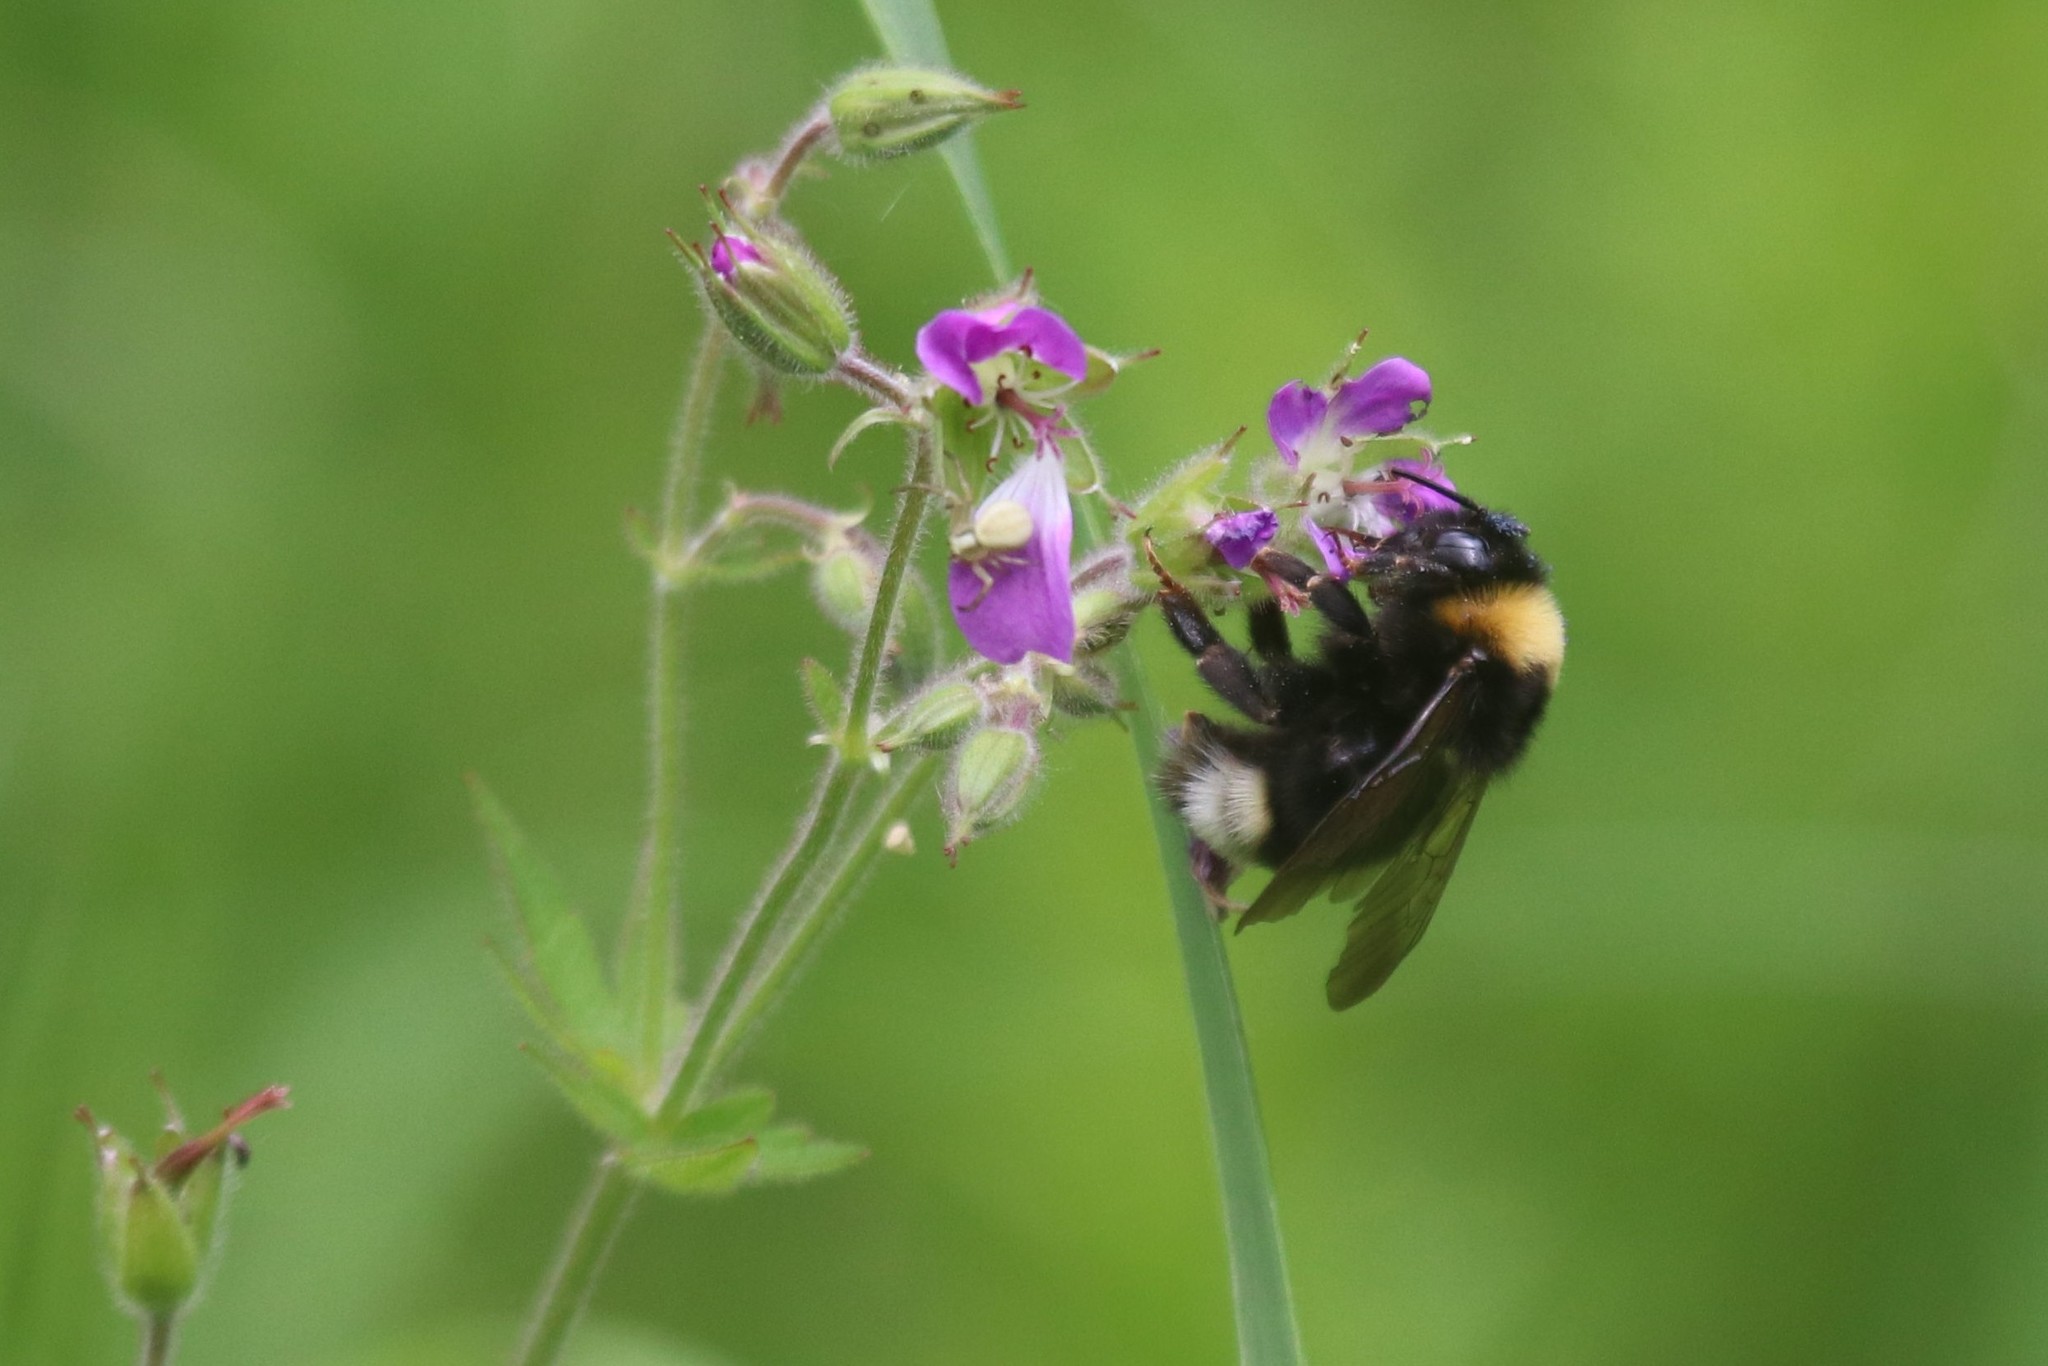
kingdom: Animalia
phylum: Arthropoda
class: Insecta
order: Hymenoptera
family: Apidae
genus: Bombus
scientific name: Bombus
